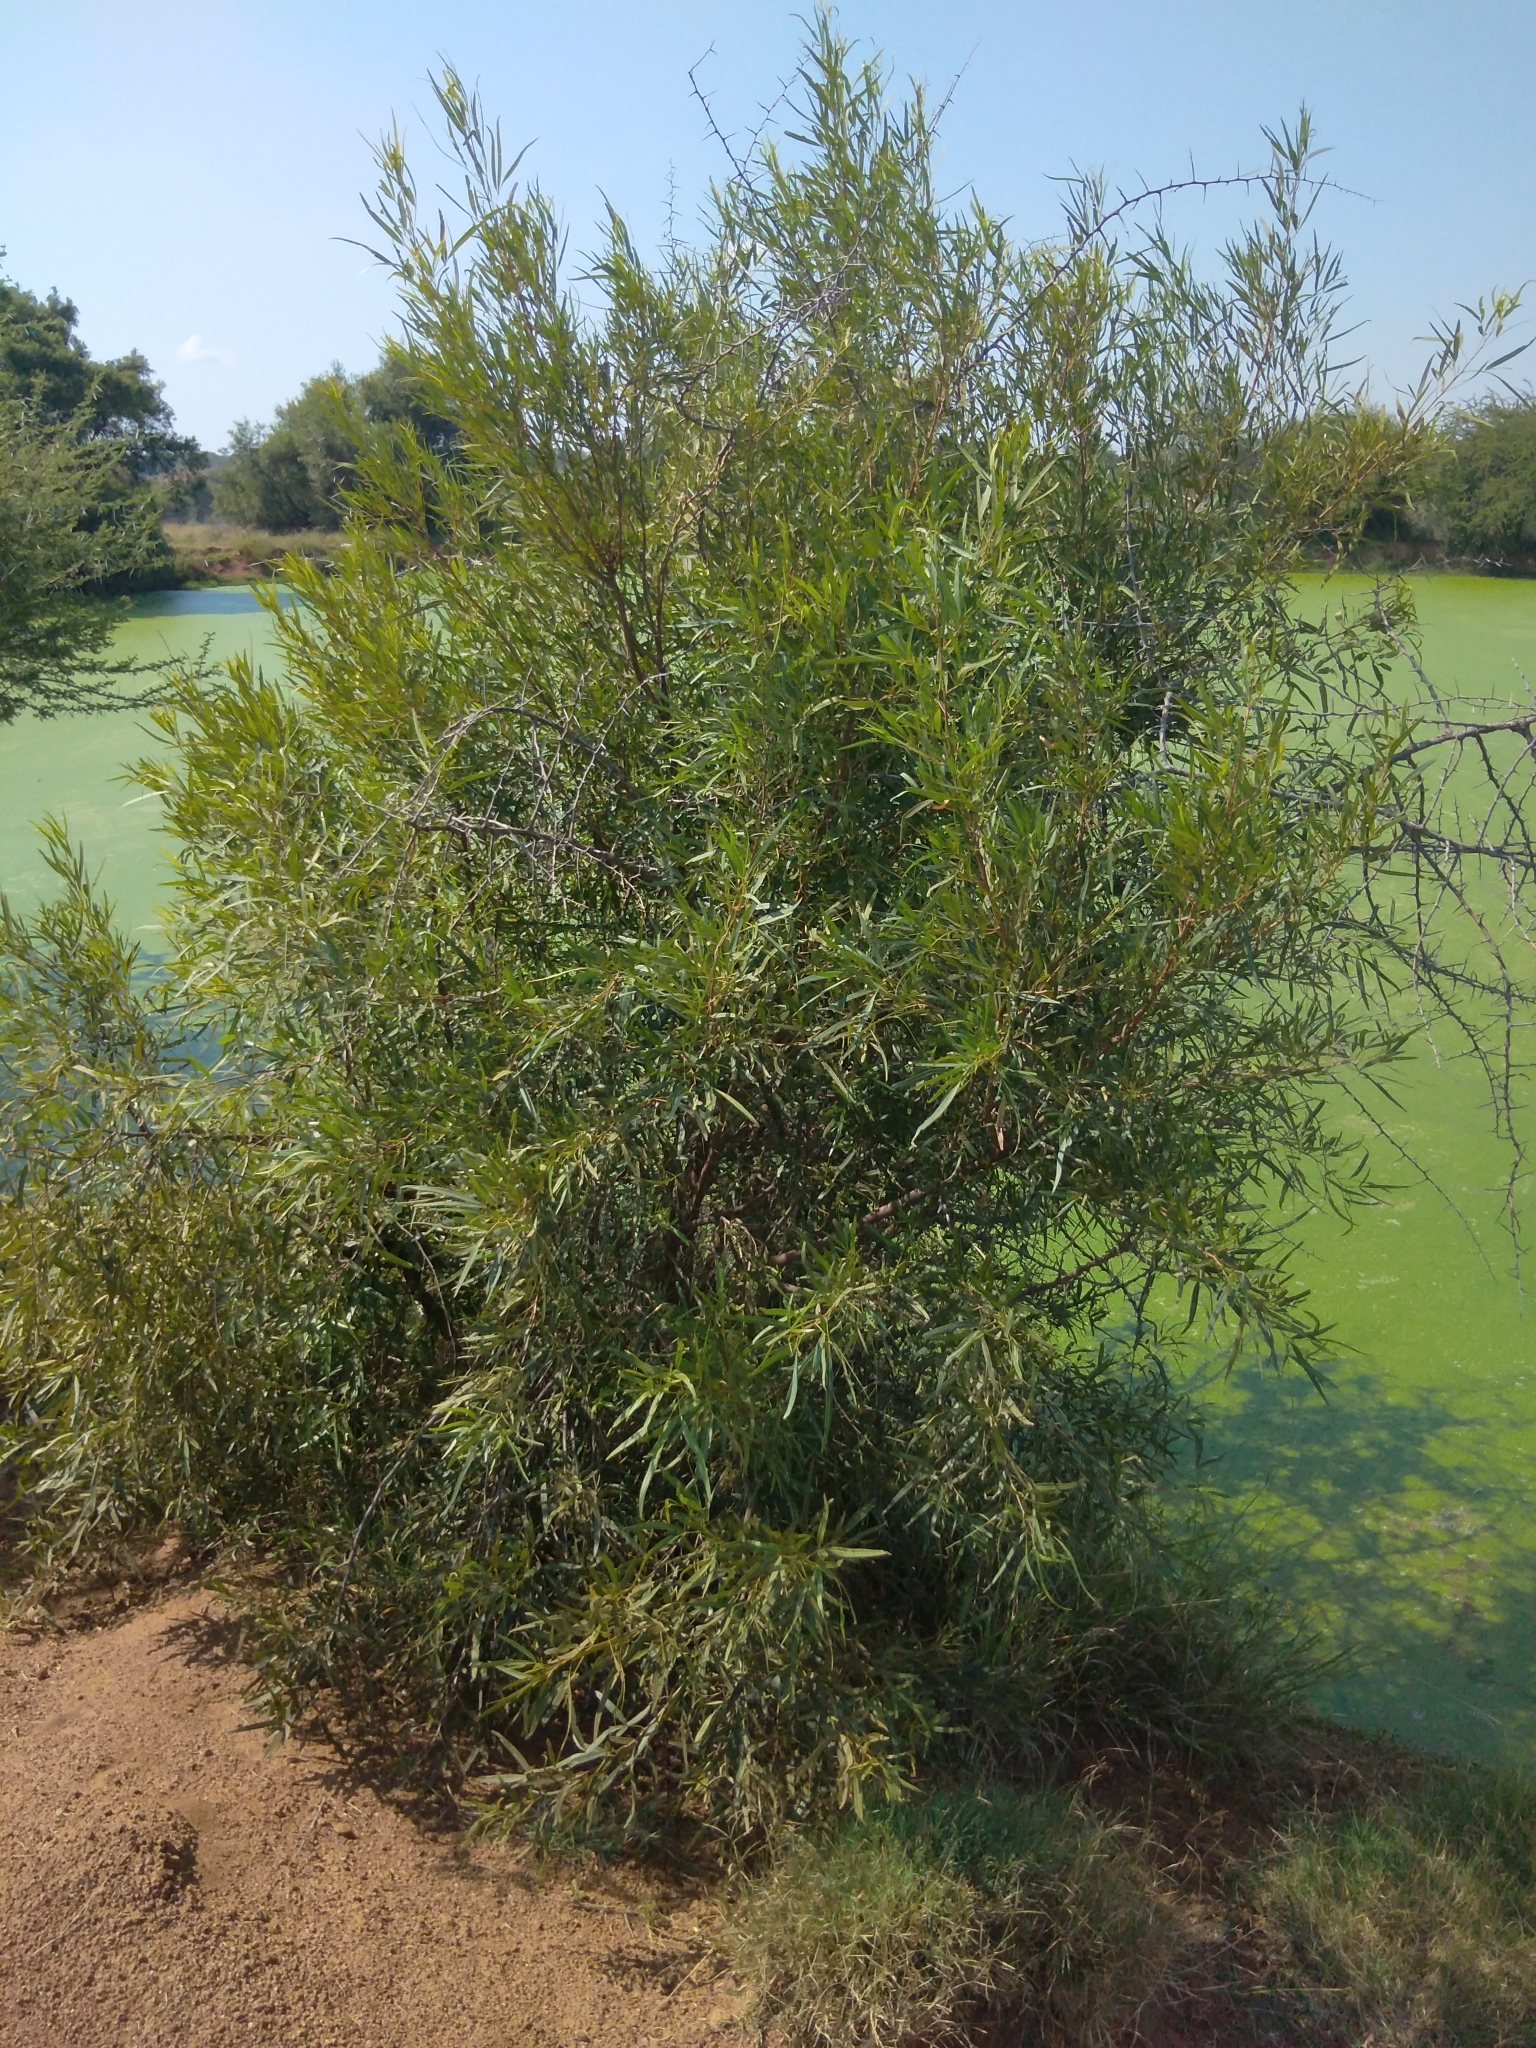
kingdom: Plantae
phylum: Tracheophyta
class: Magnoliopsida
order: Sapindales
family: Anacardiaceae
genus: Searsia
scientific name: Searsia lancea
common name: Cashew
